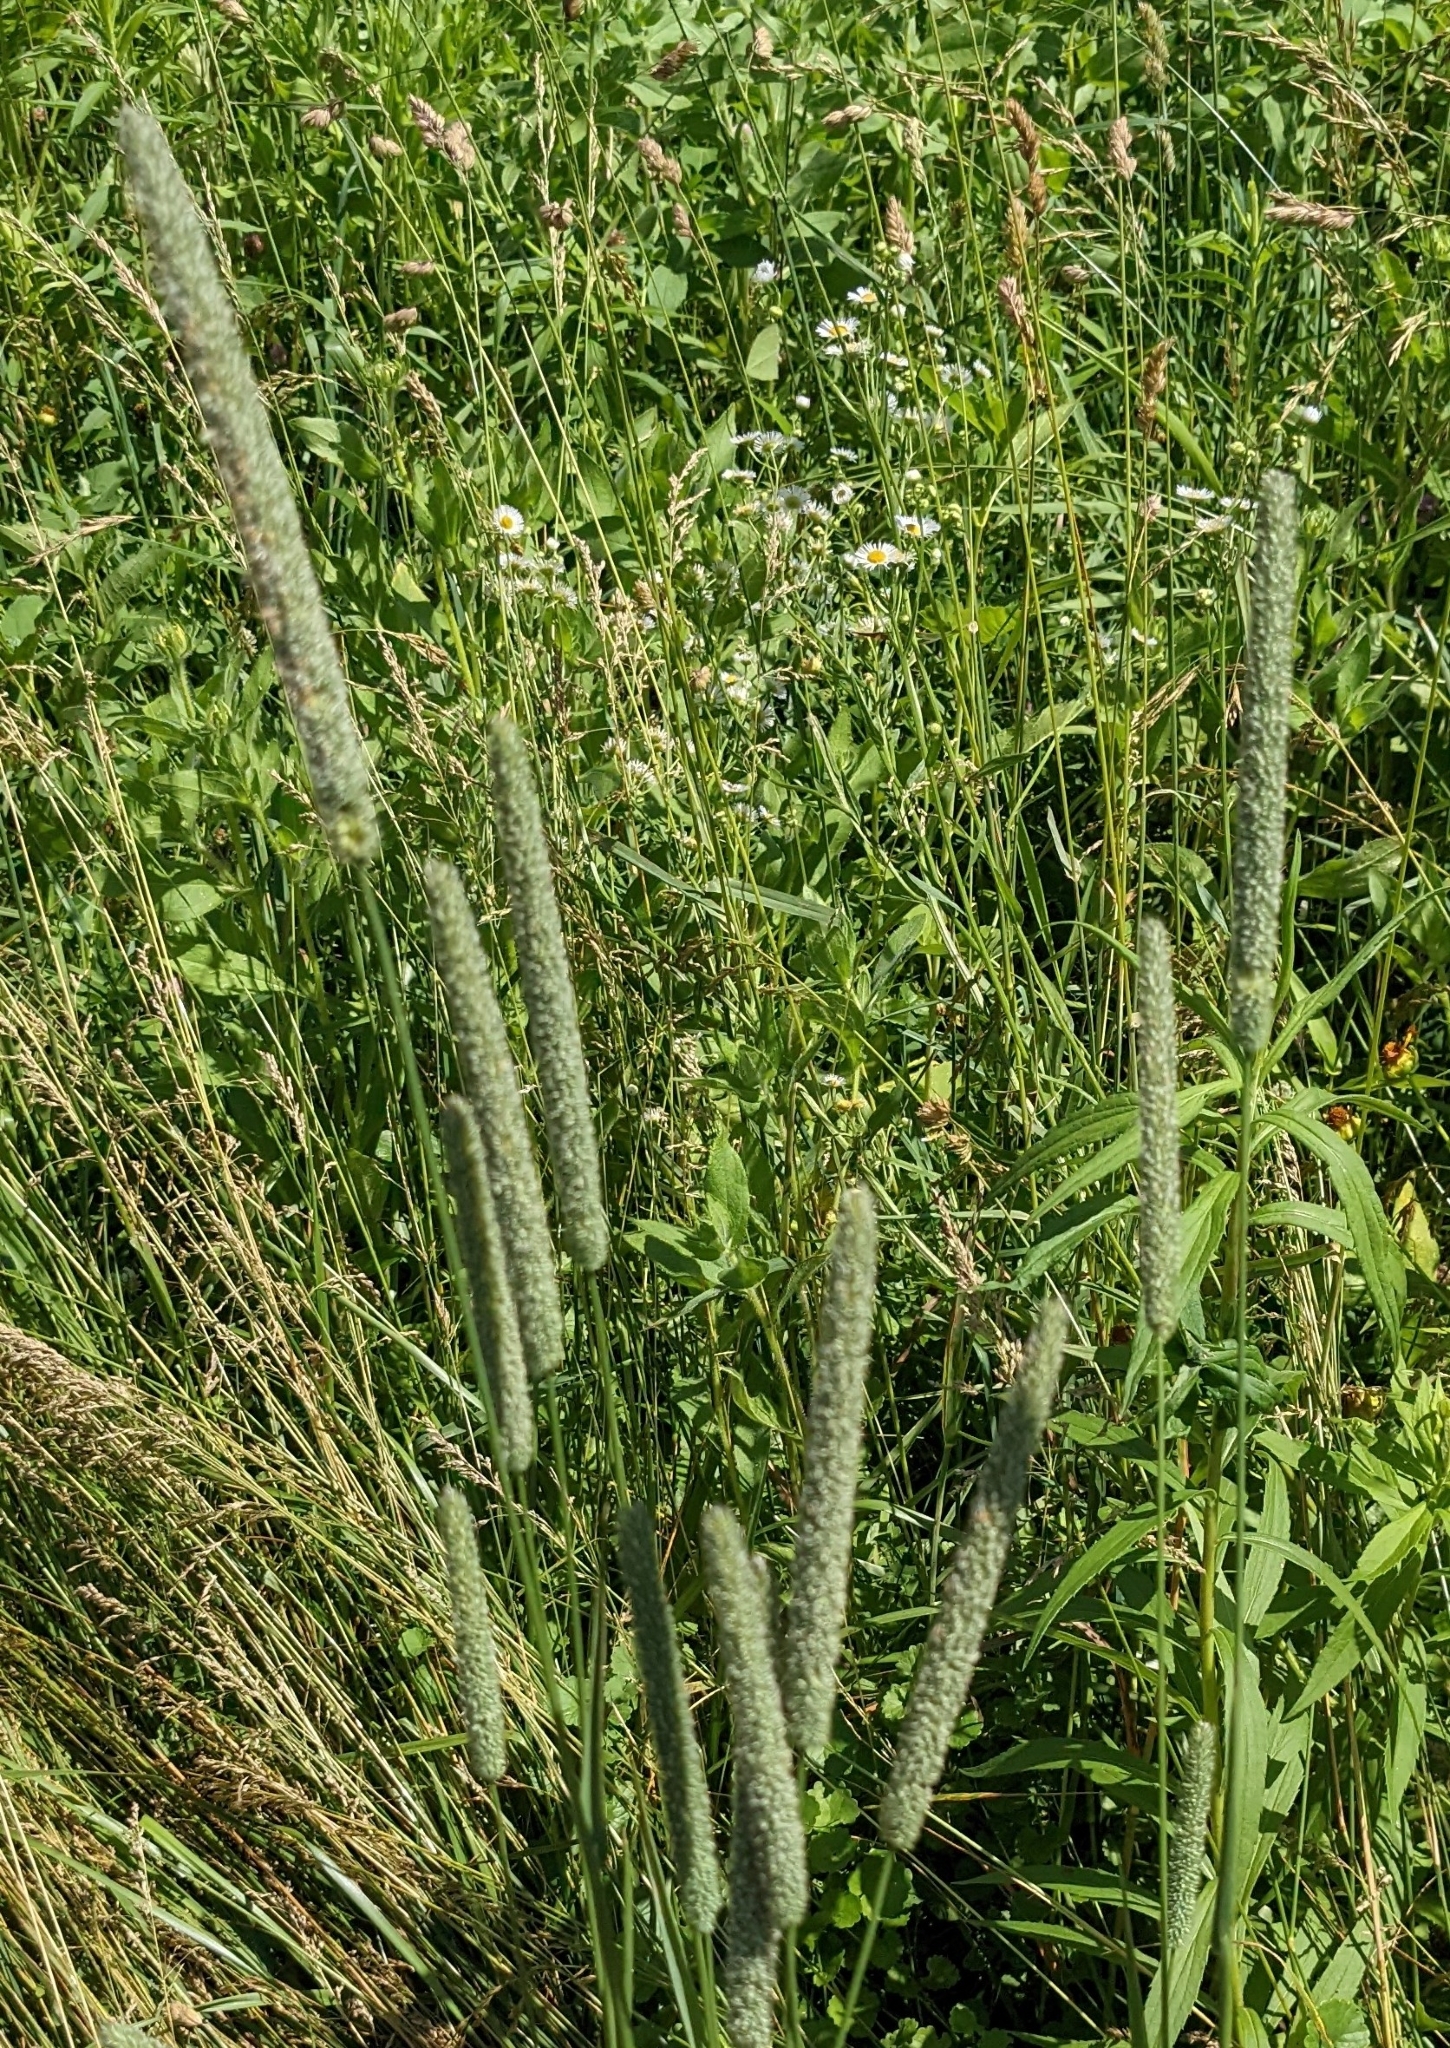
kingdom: Plantae
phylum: Tracheophyta
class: Liliopsida
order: Poales
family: Poaceae
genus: Phleum
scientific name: Phleum pratense
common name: Timothy grass
